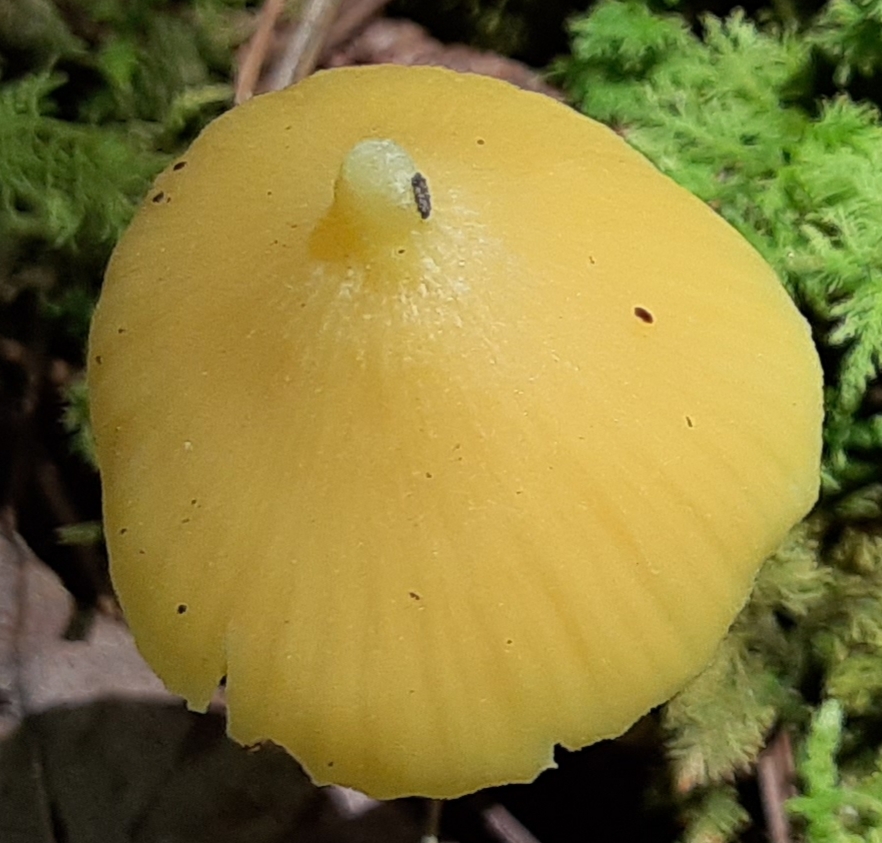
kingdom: Fungi
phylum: Basidiomycota
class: Agaricomycetes
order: Agaricales
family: Entolomataceae
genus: Entoloma
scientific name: Entoloma murrayi
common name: Yellow unicorn entoloma
